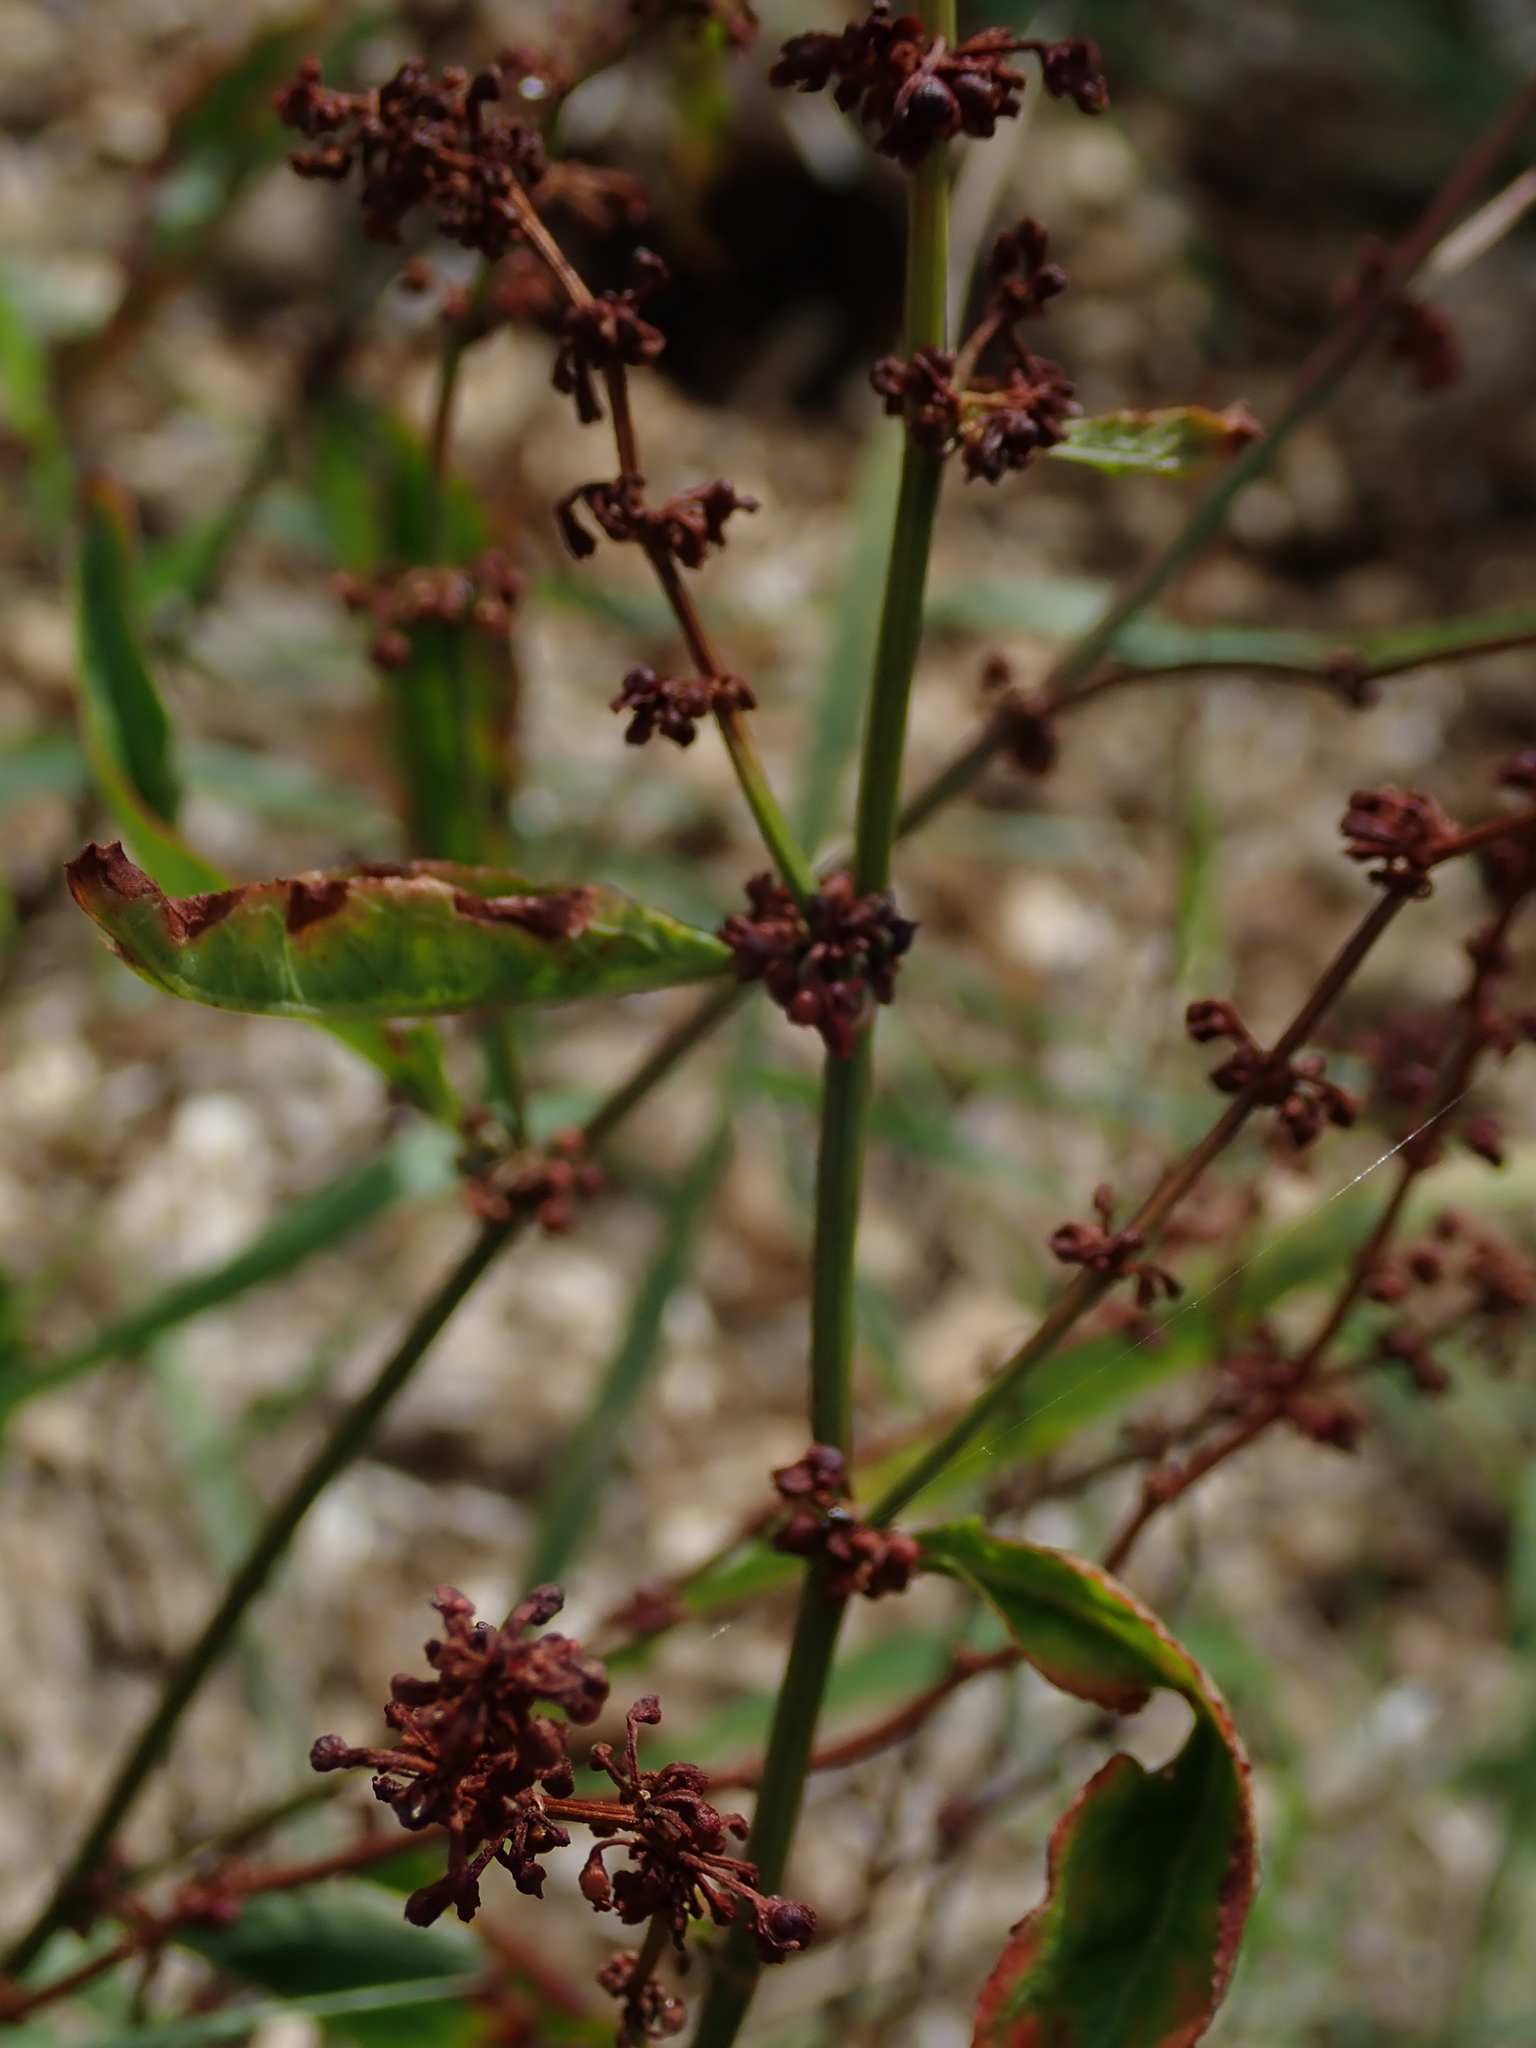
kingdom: Plantae
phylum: Tracheophyta
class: Magnoliopsida
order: Caryophyllales
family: Polygonaceae
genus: Rumex
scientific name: Rumex sanguineus
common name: Wood dock
